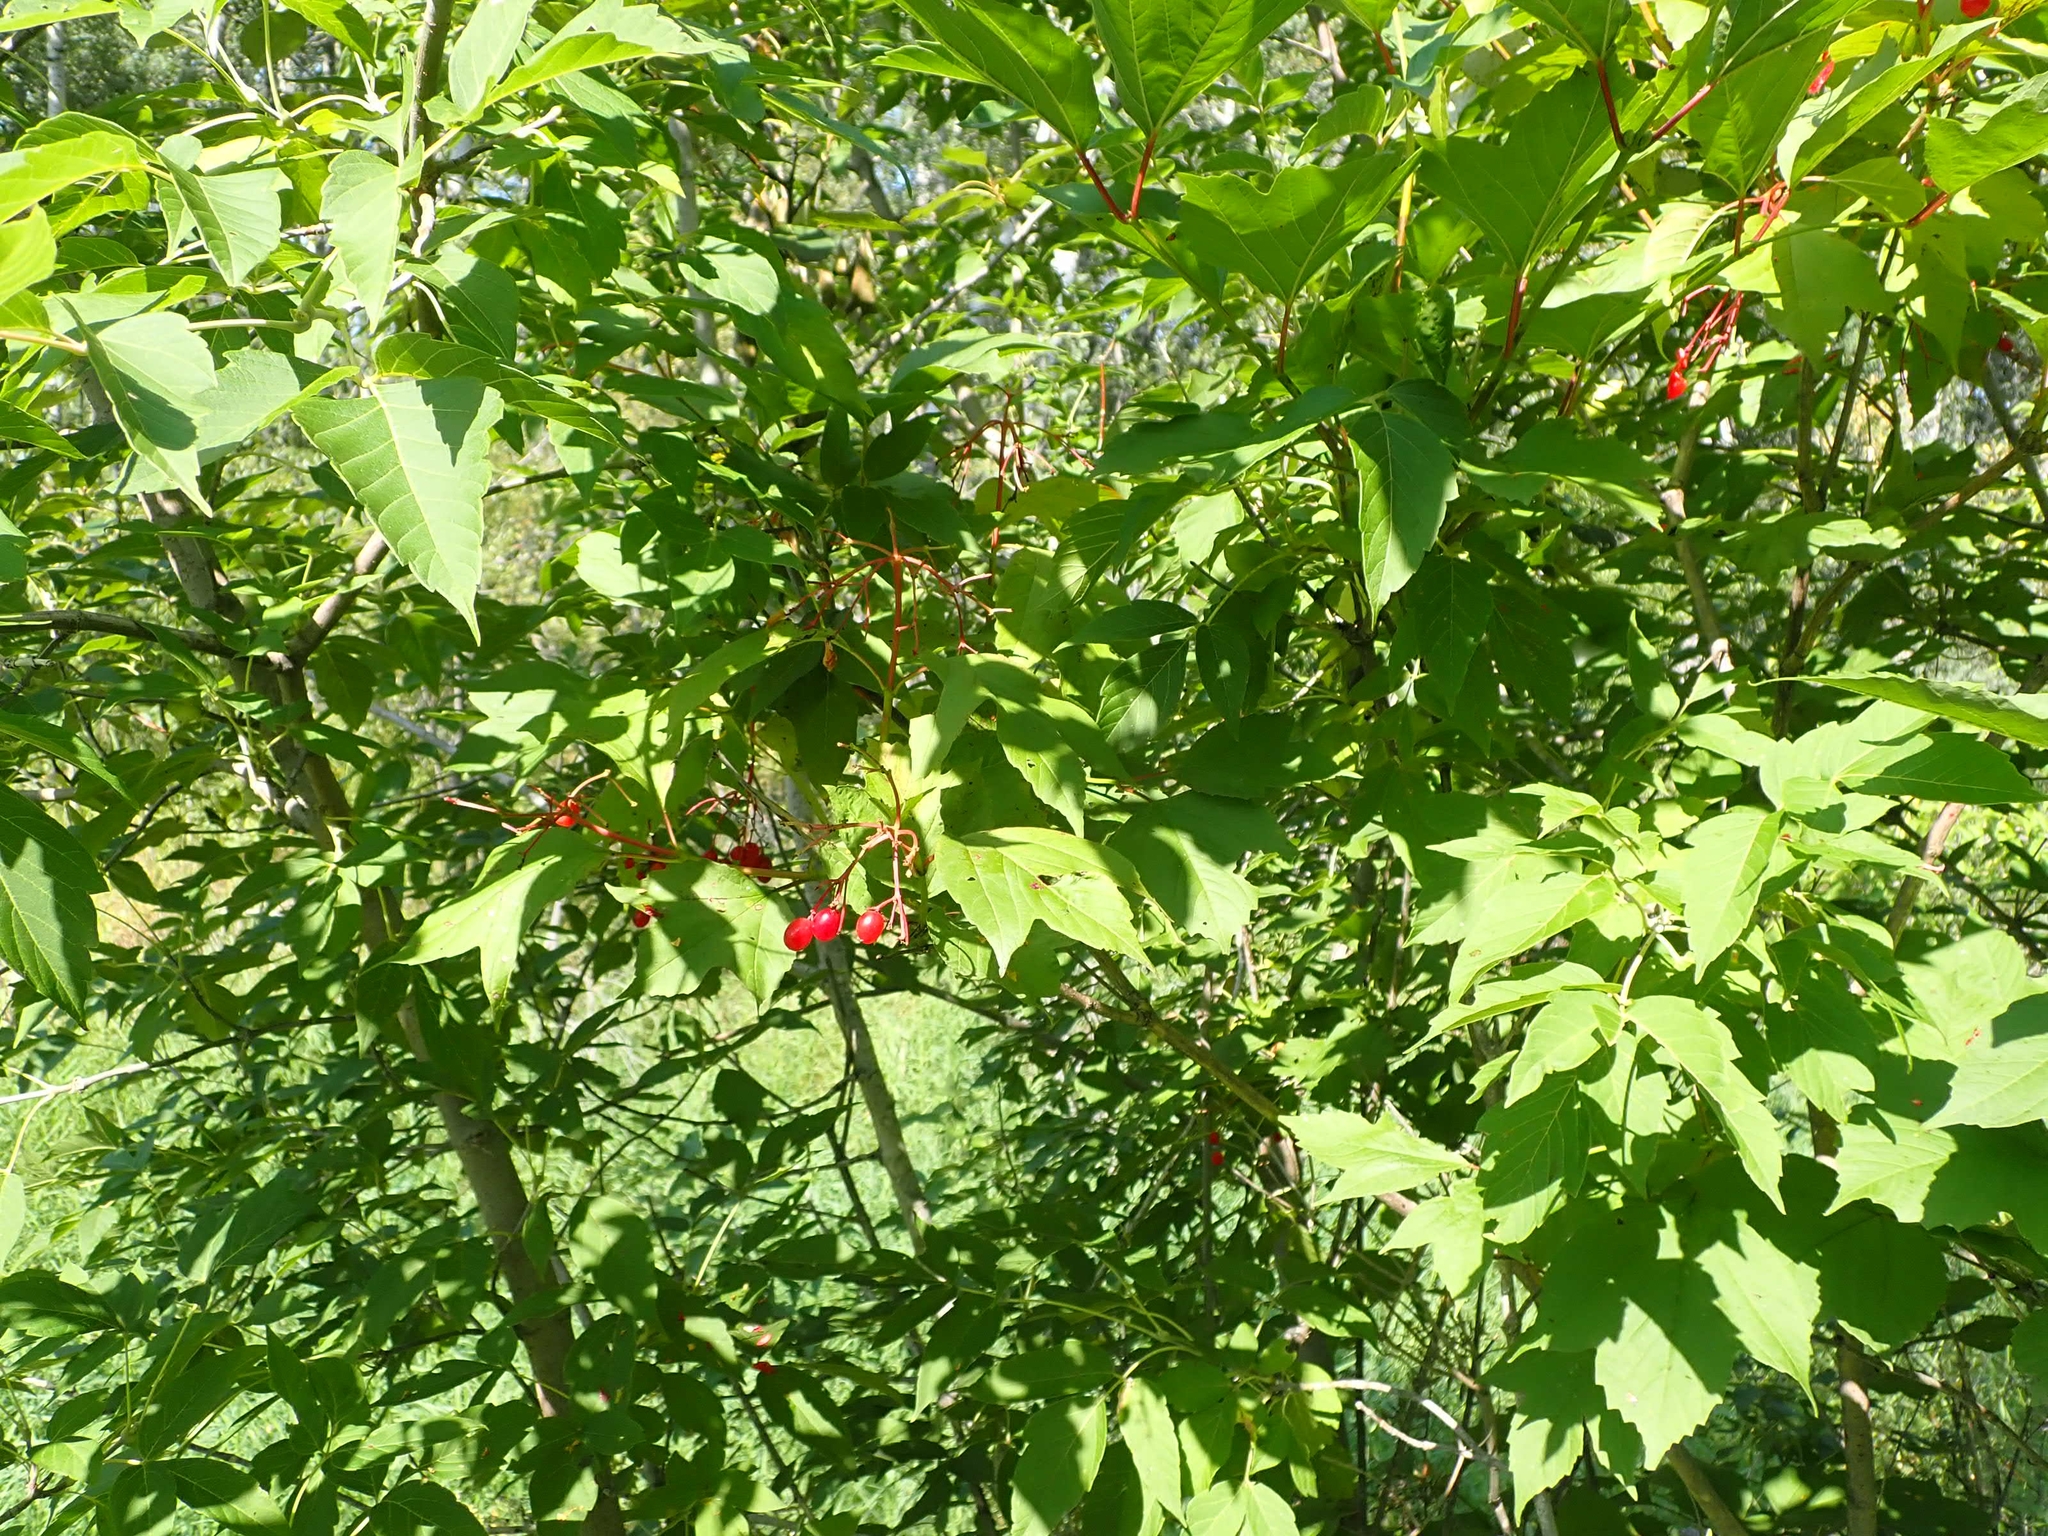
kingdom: Plantae
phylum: Tracheophyta
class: Magnoliopsida
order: Dipsacales
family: Viburnaceae
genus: Viburnum
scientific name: Viburnum trilobum
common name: American cranberrybush
